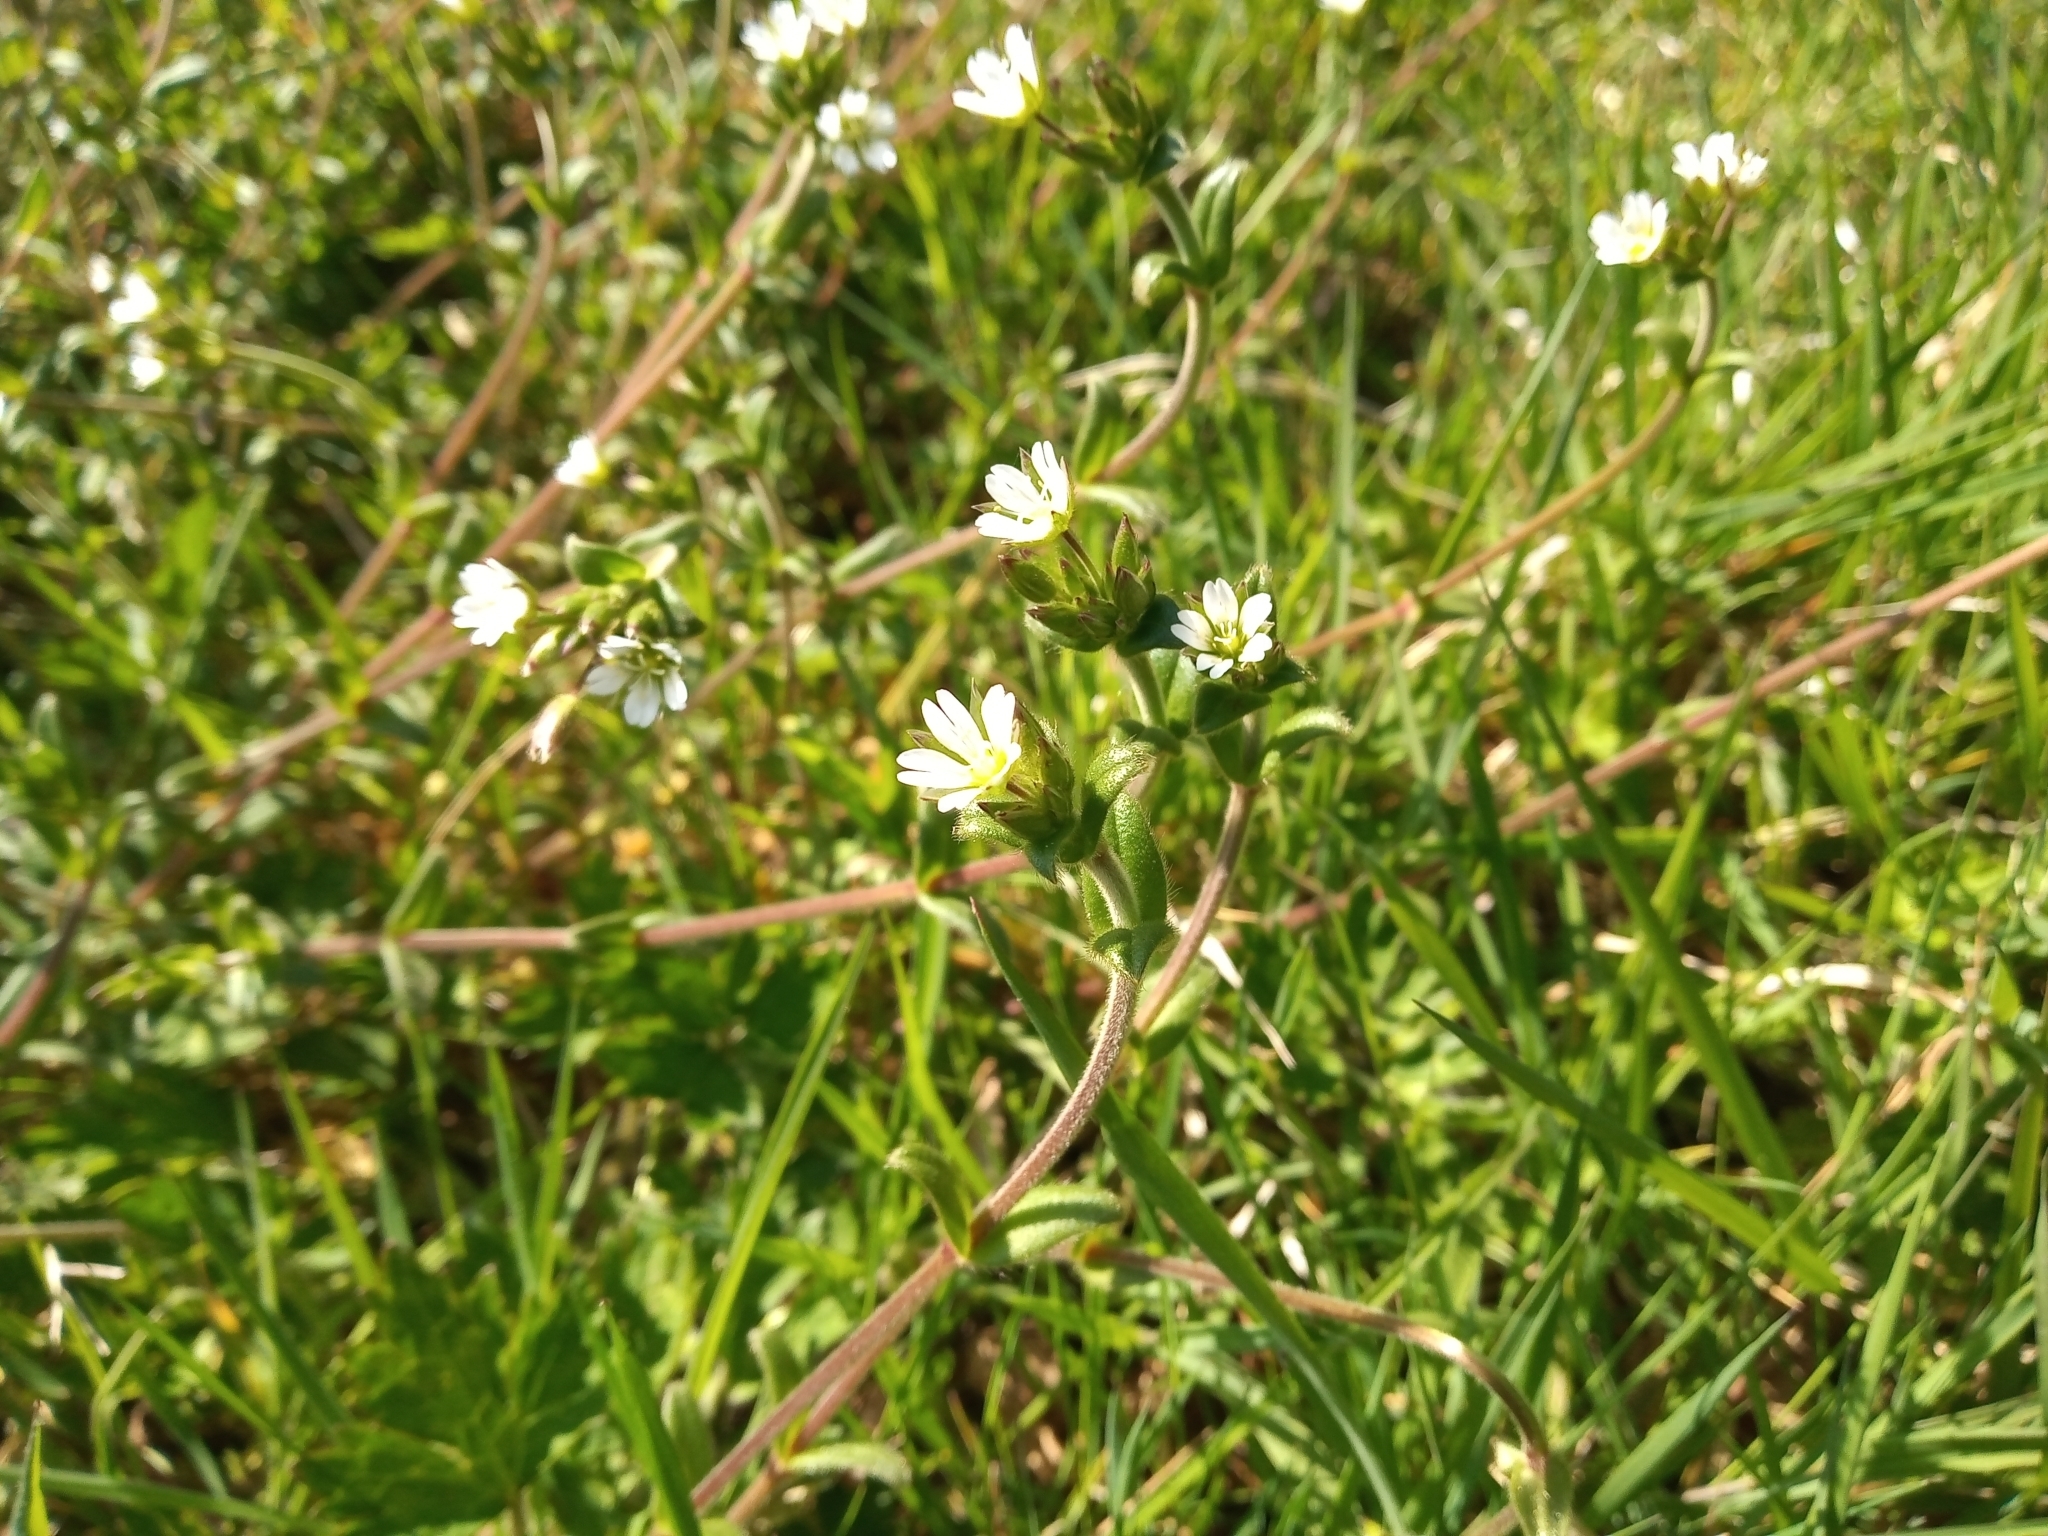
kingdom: Plantae
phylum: Tracheophyta
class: Magnoliopsida
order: Caryophyllales
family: Caryophyllaceae
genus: Cerastium
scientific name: Cerastium fontanum
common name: Common mouse-ear
